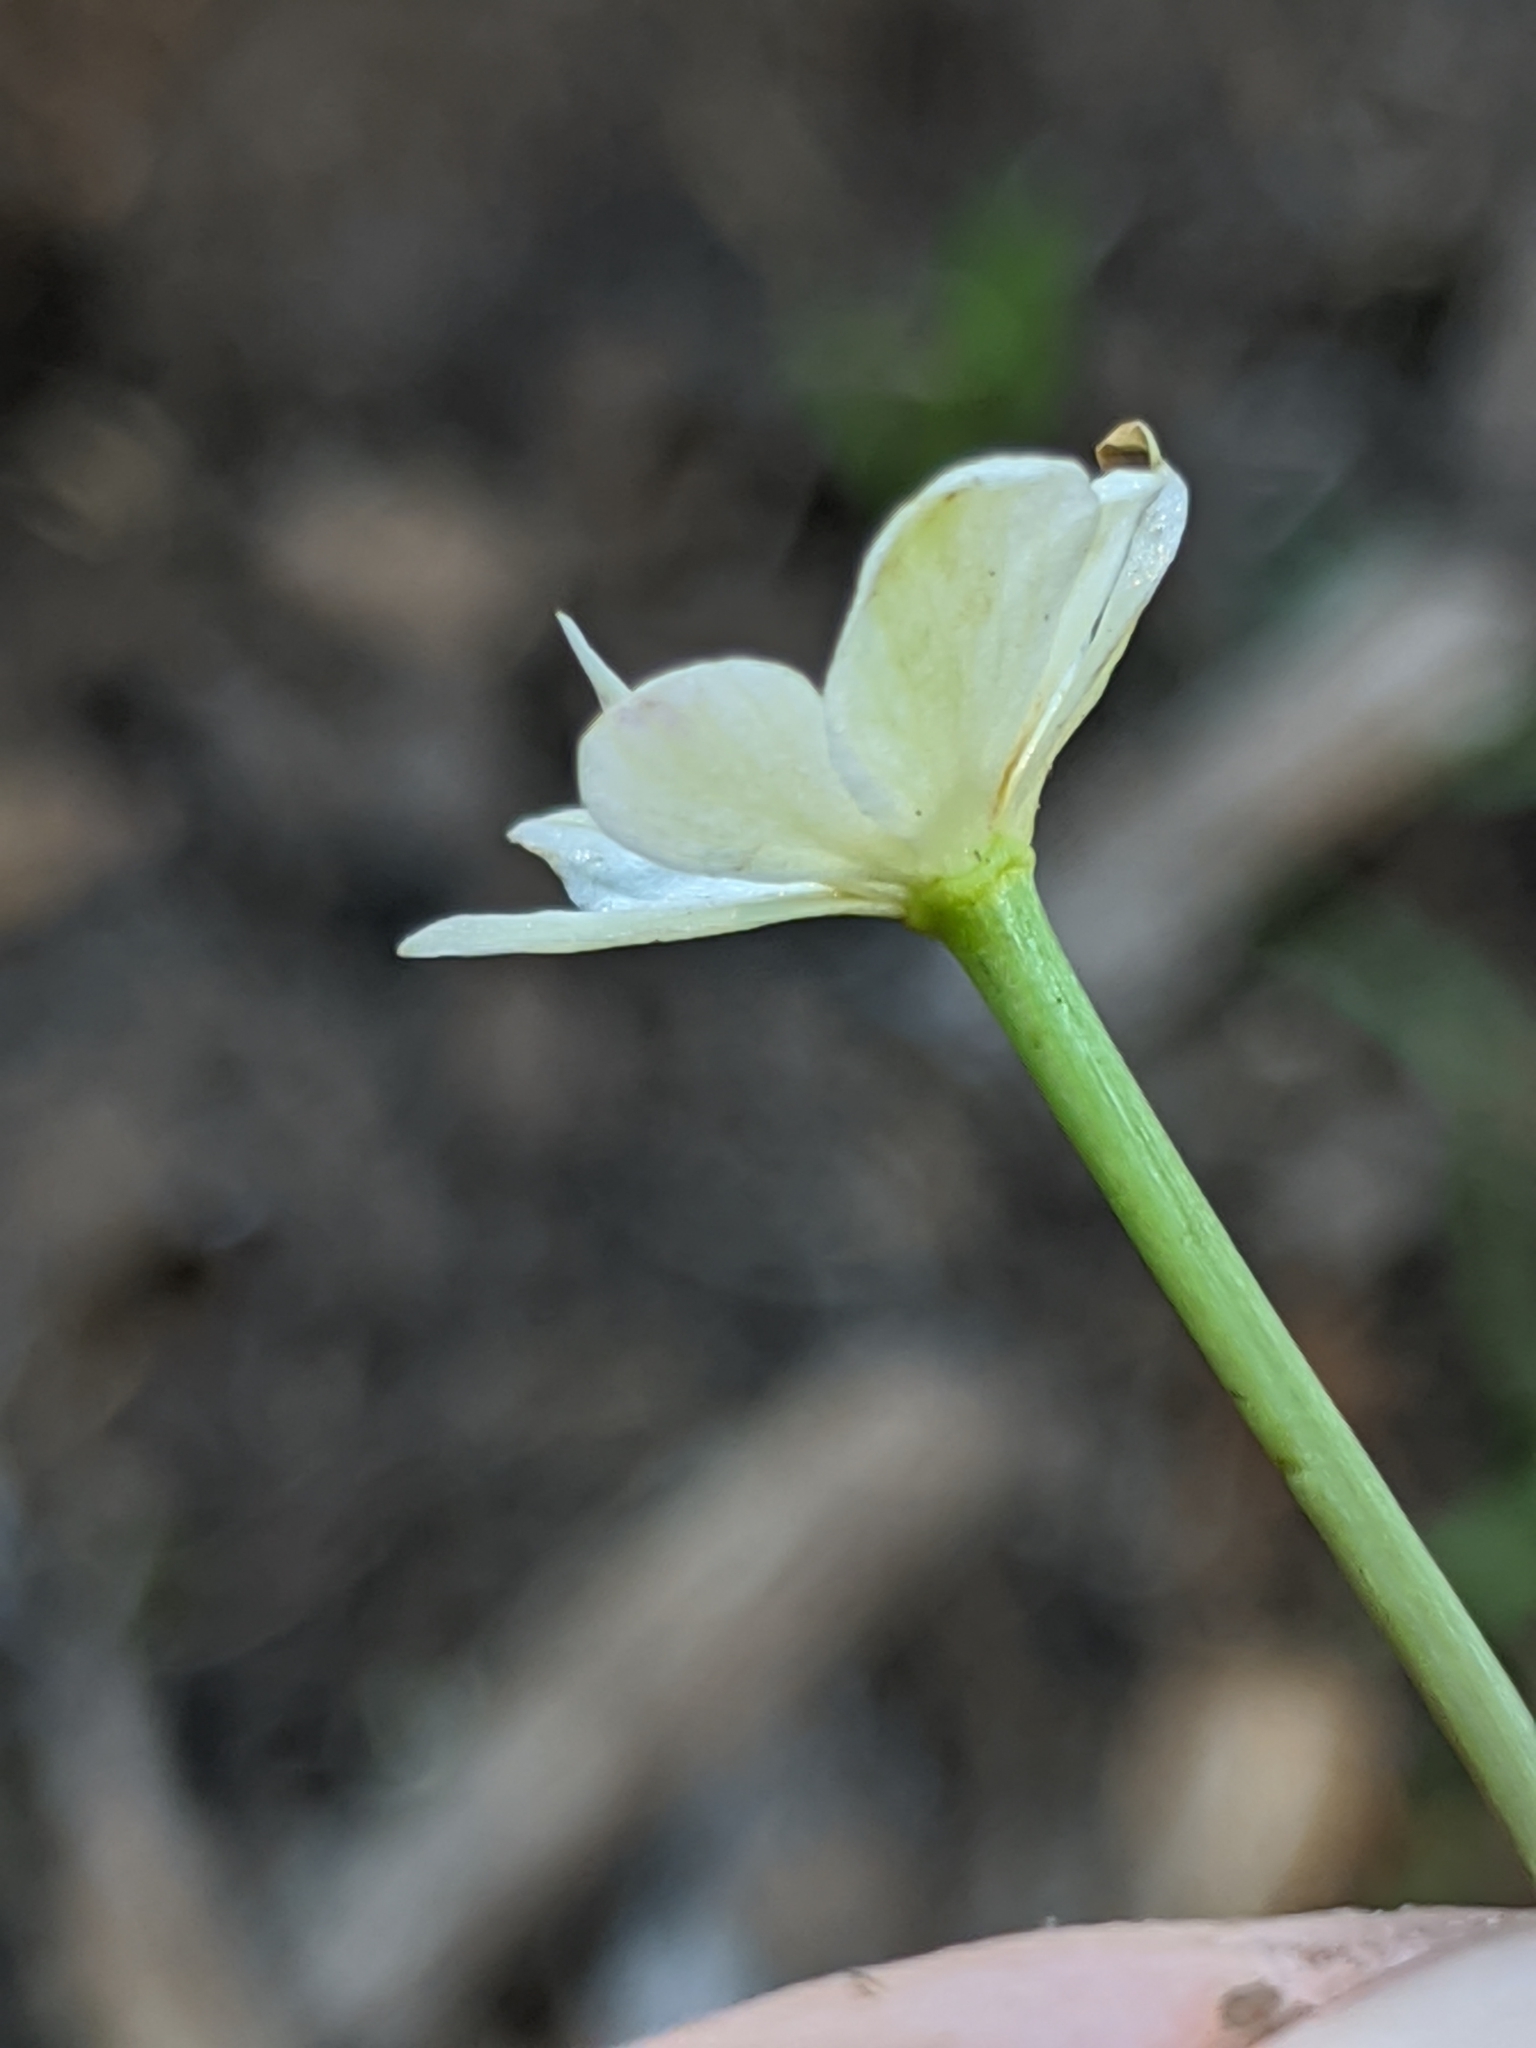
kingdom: Plantae
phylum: Tracheophyta
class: Magnoliopsida
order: Ranunculales
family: Ranunculaceae
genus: Caltha
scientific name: Caltha leptosepala
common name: Elkslip
